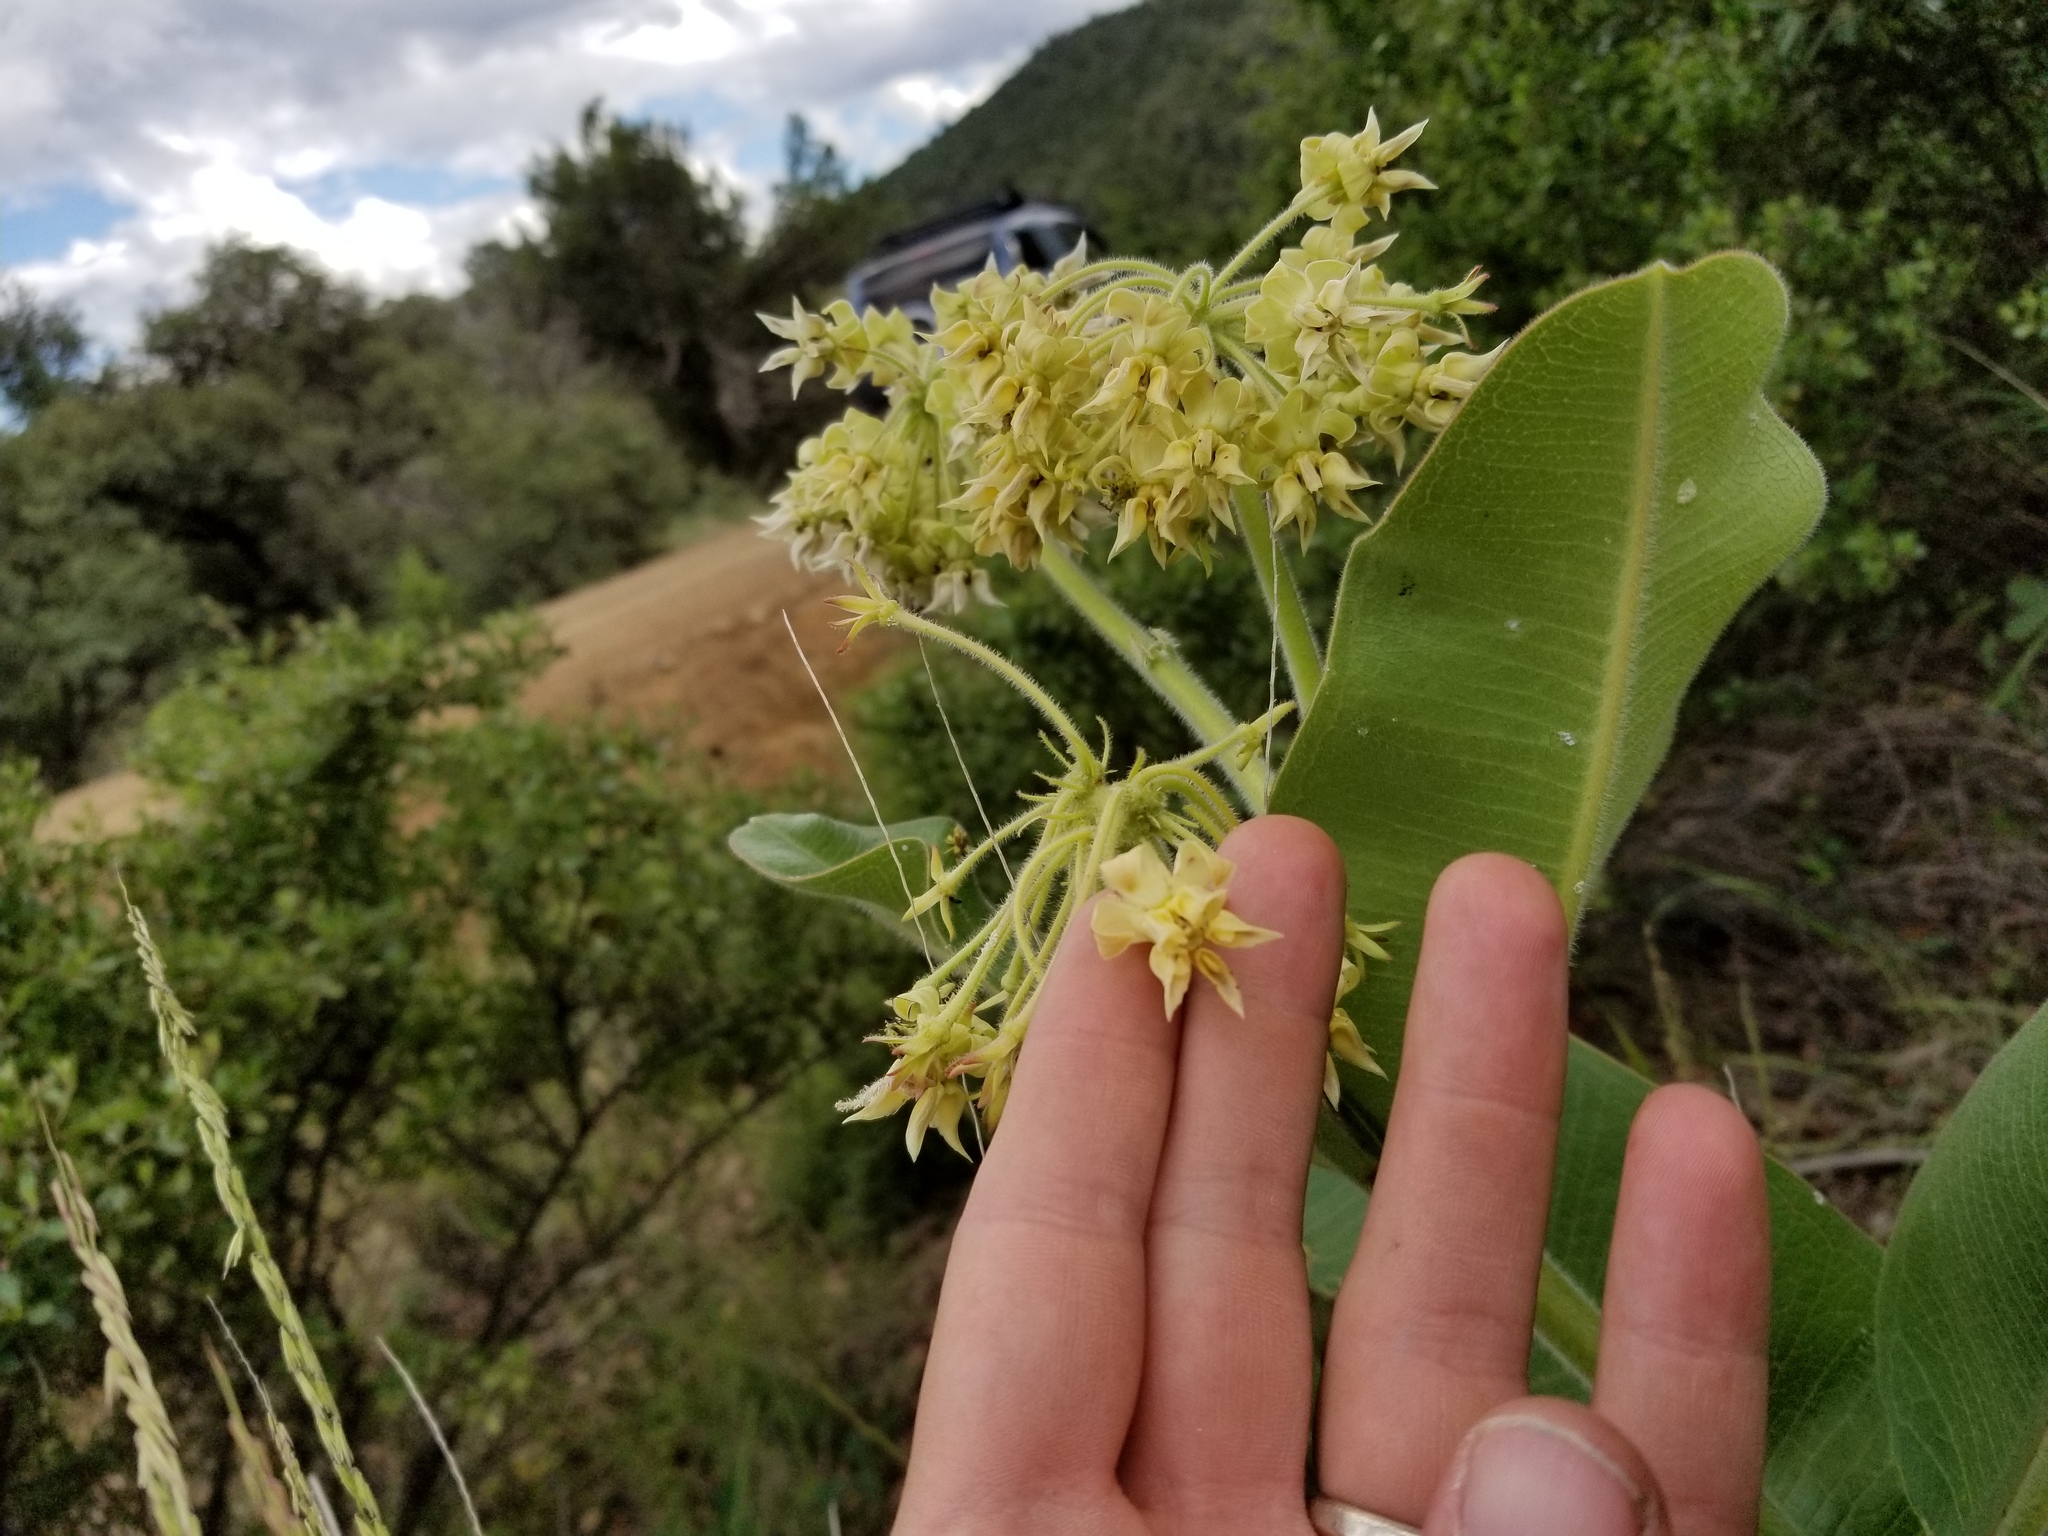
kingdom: Plantae
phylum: Tracheophyta
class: Magnoliopsida
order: Gentianales
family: Apocynaceae
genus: Asclepias
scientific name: Asclepias lemmonii
